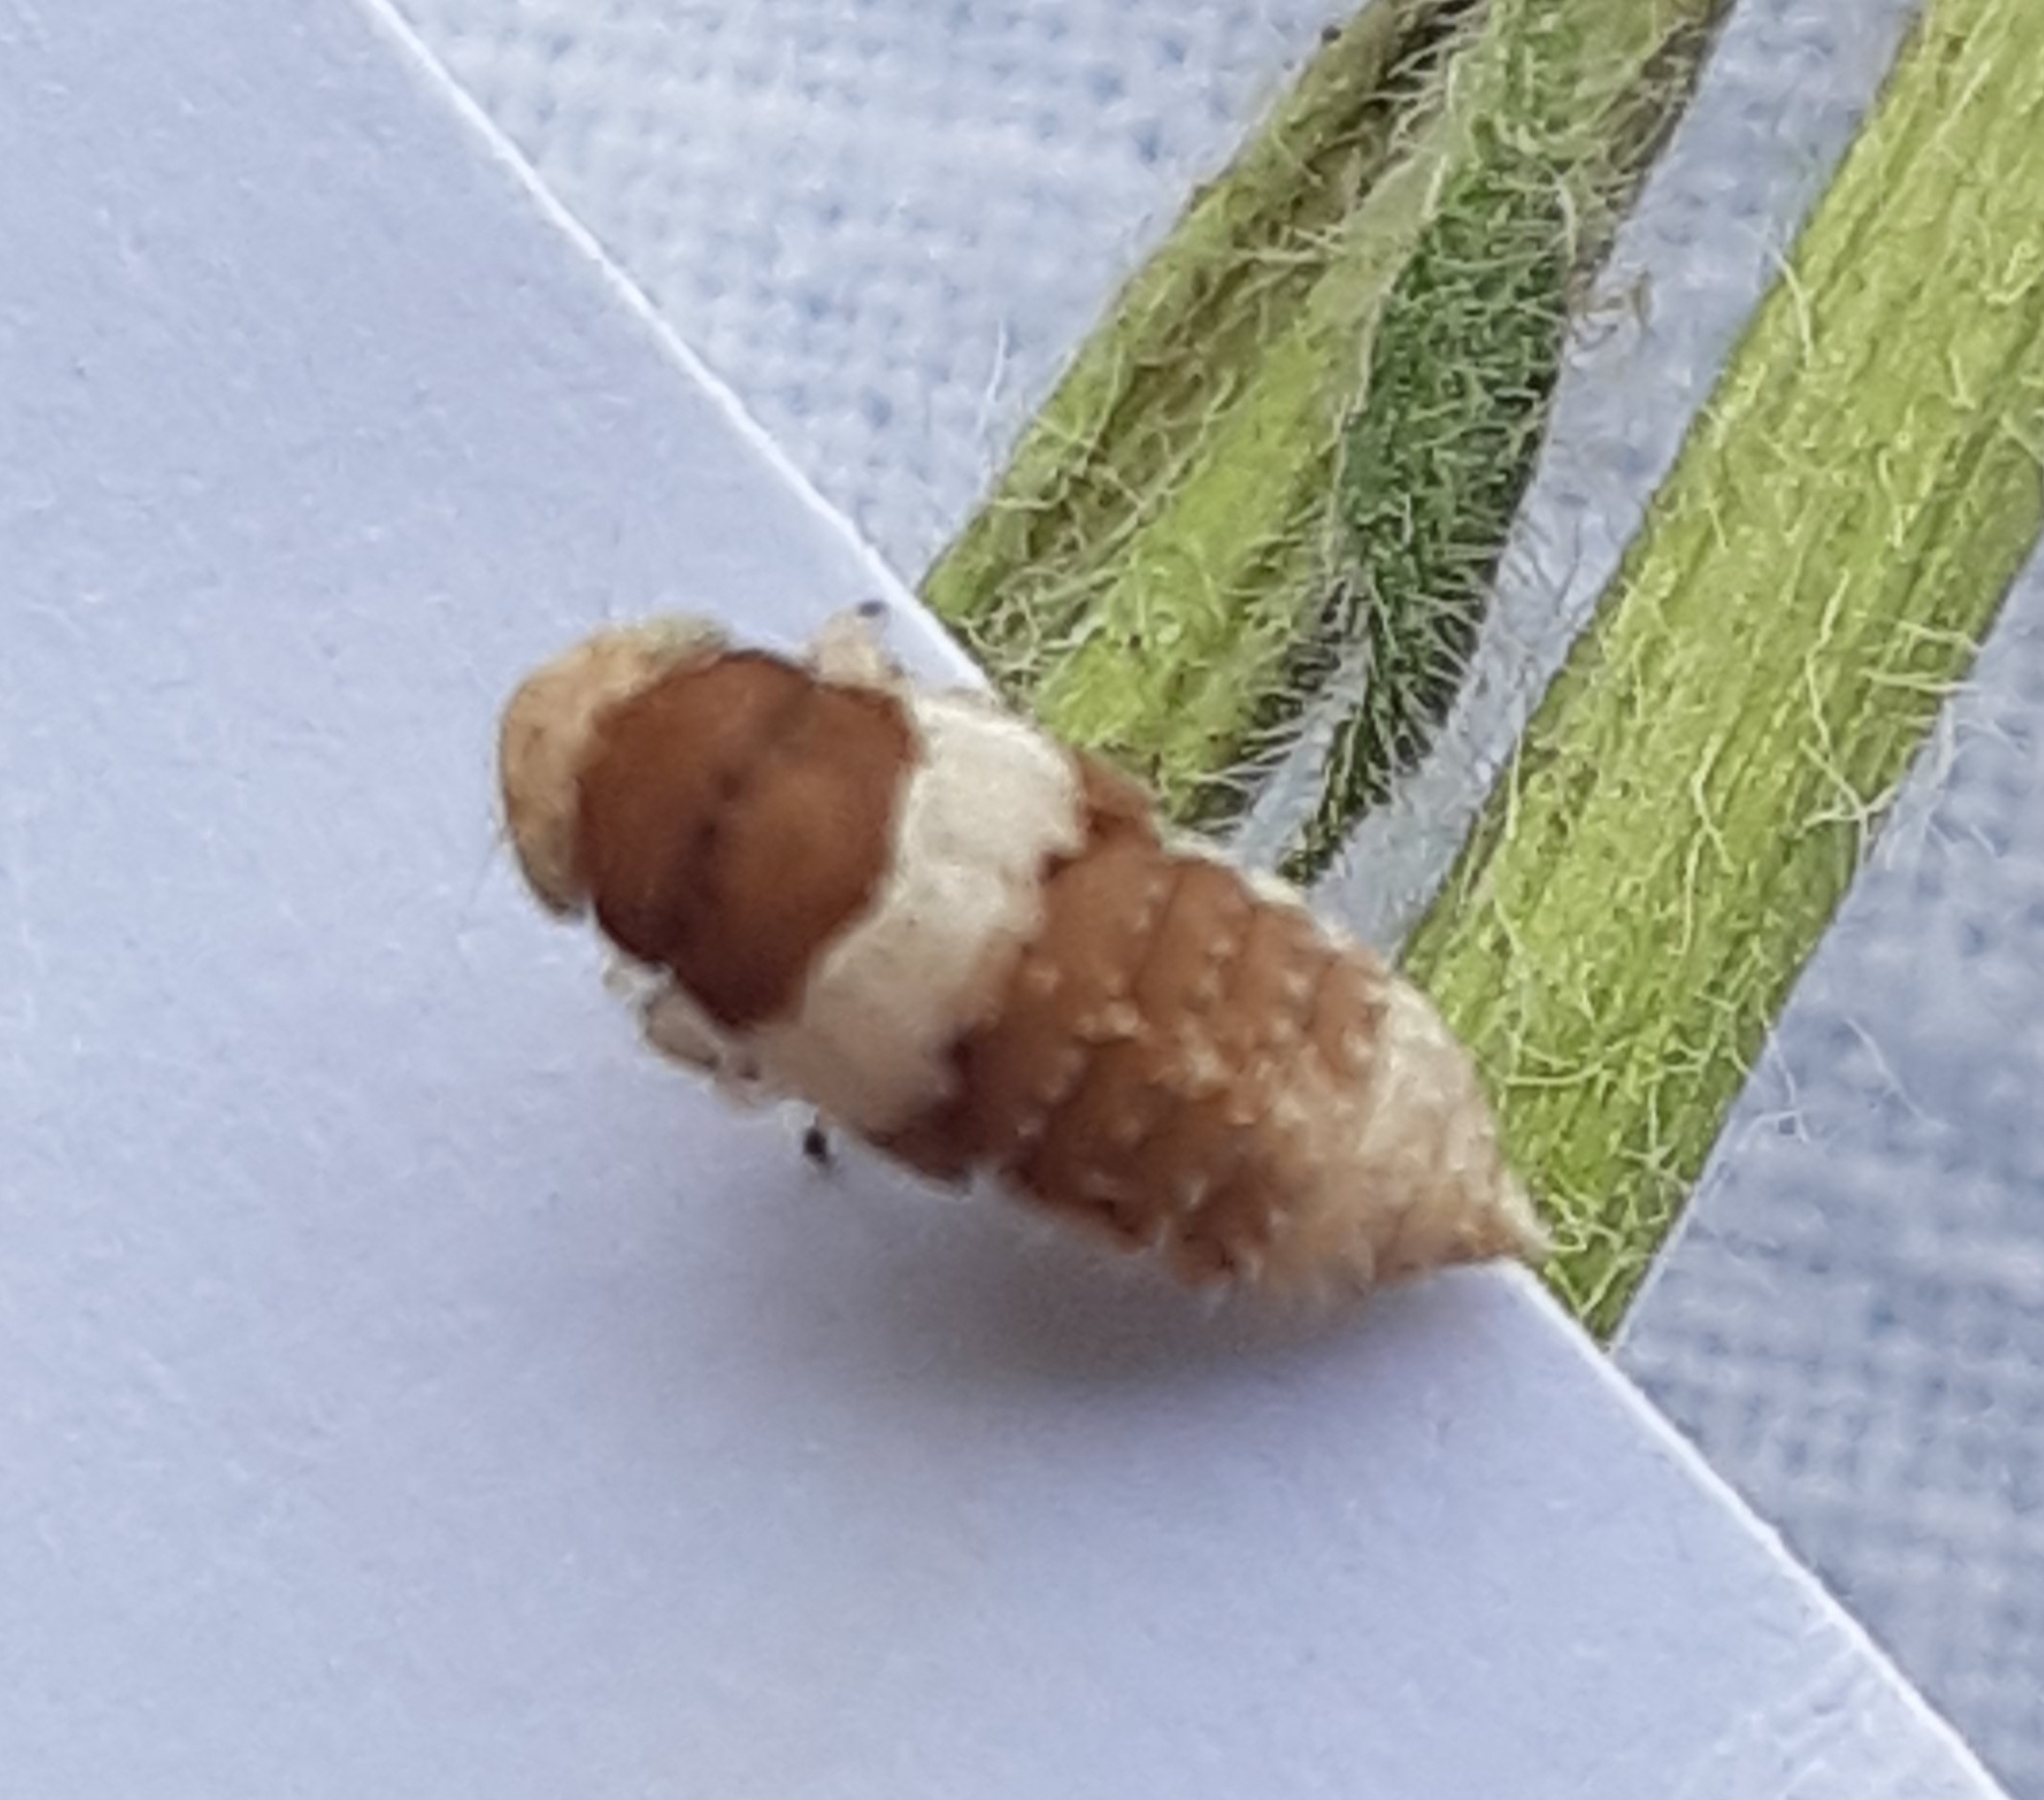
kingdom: Animalia
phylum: Arthropoda
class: Insecta
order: Hemiptera
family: Cicadellidae
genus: Allygidius
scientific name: Allygidius atomarius
